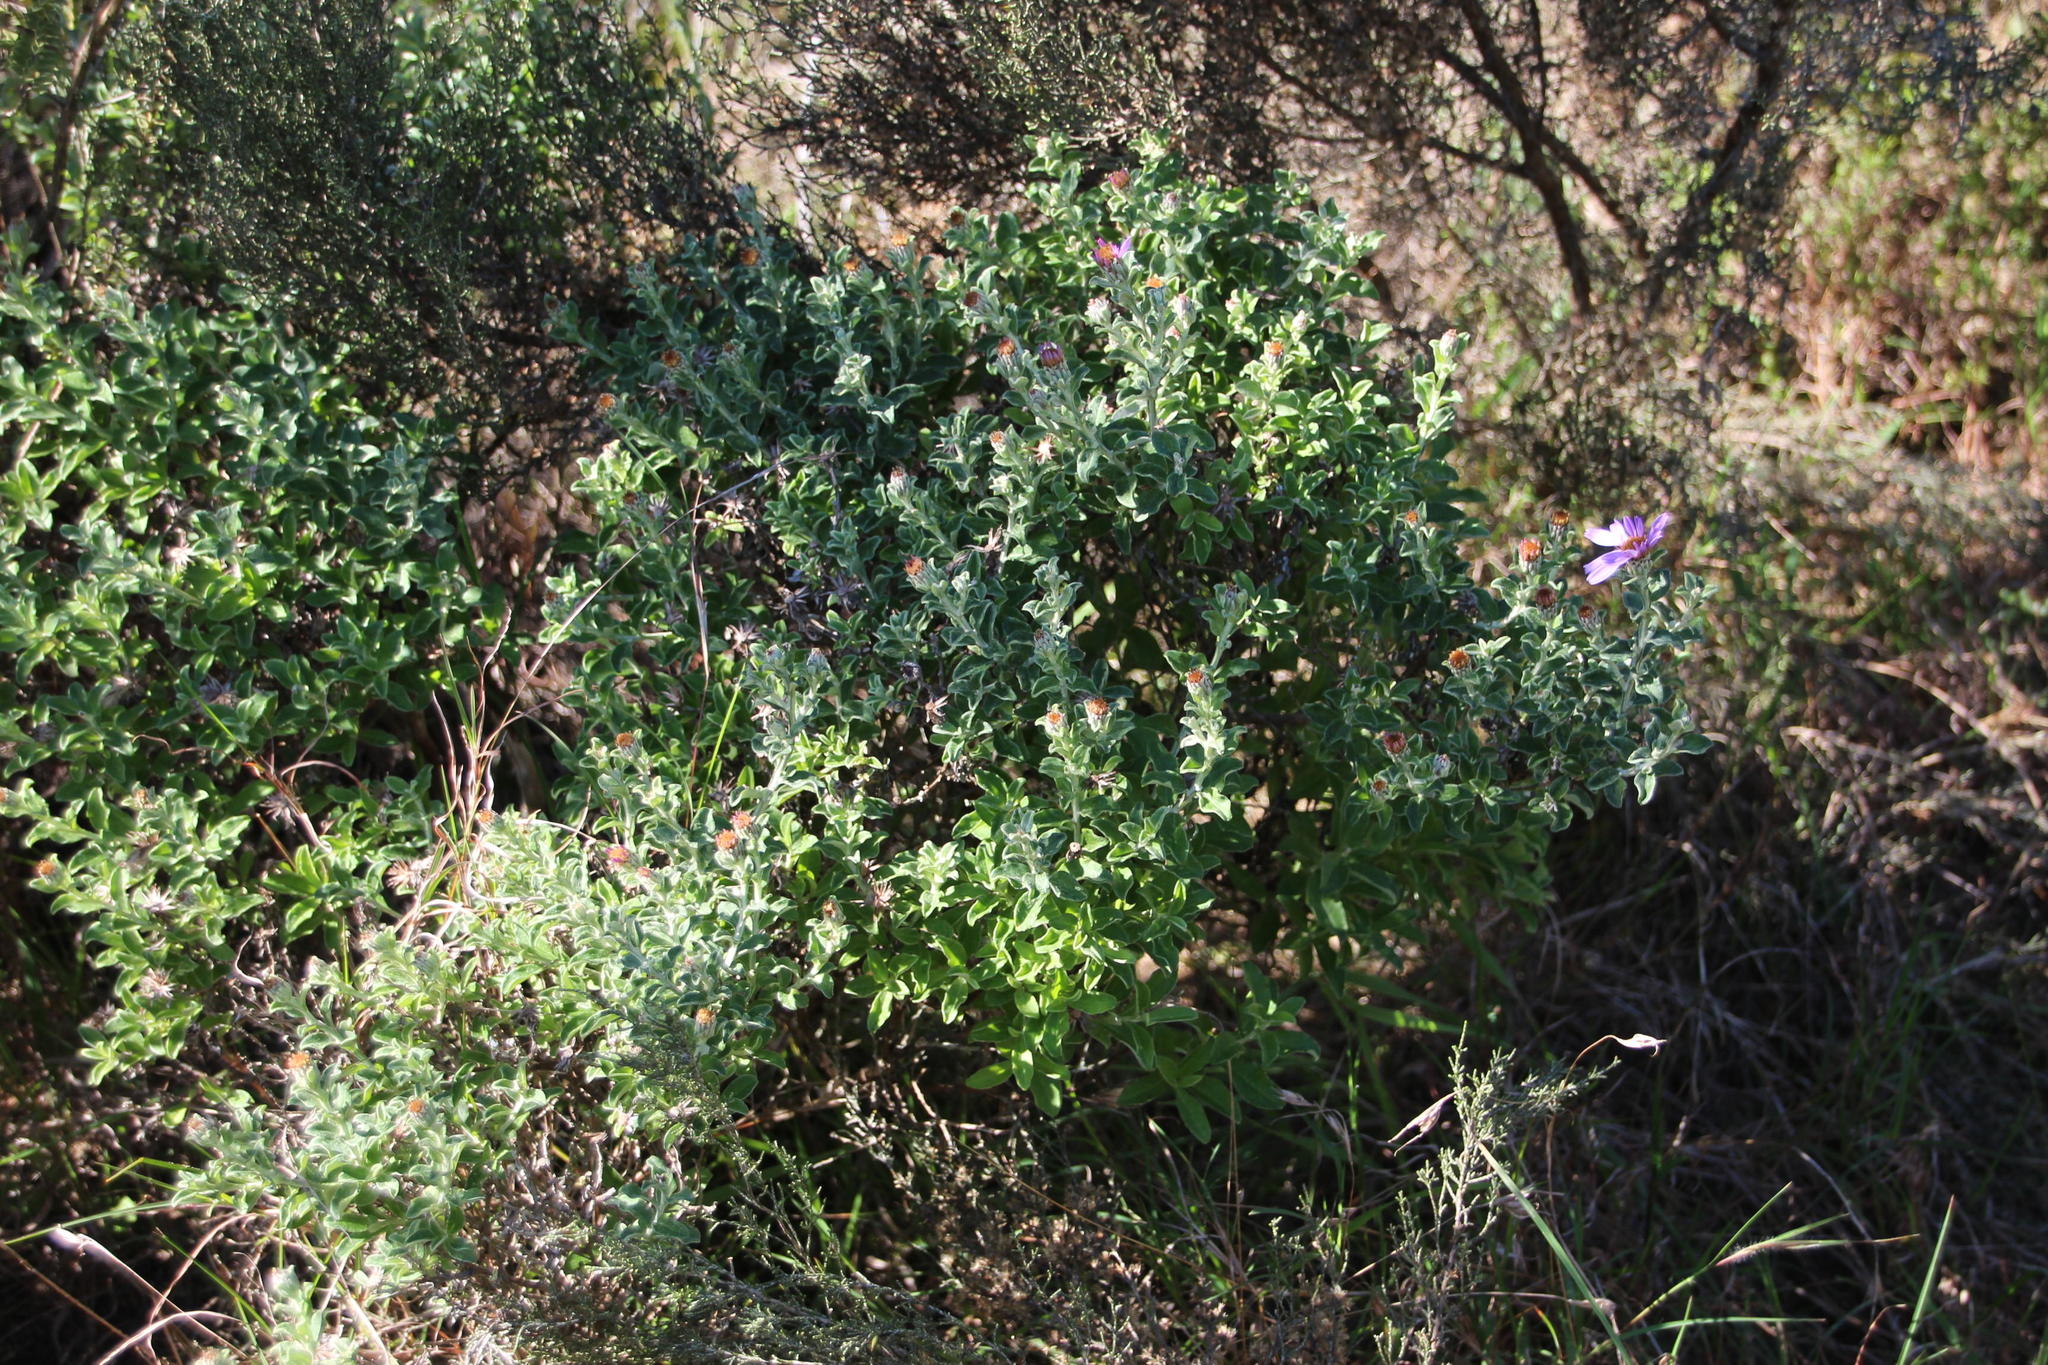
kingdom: Plantae
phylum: Tracheophyta
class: Magnoliopsida
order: Asterales
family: Asteraceae
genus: Printzia
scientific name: Printzia polifolia
